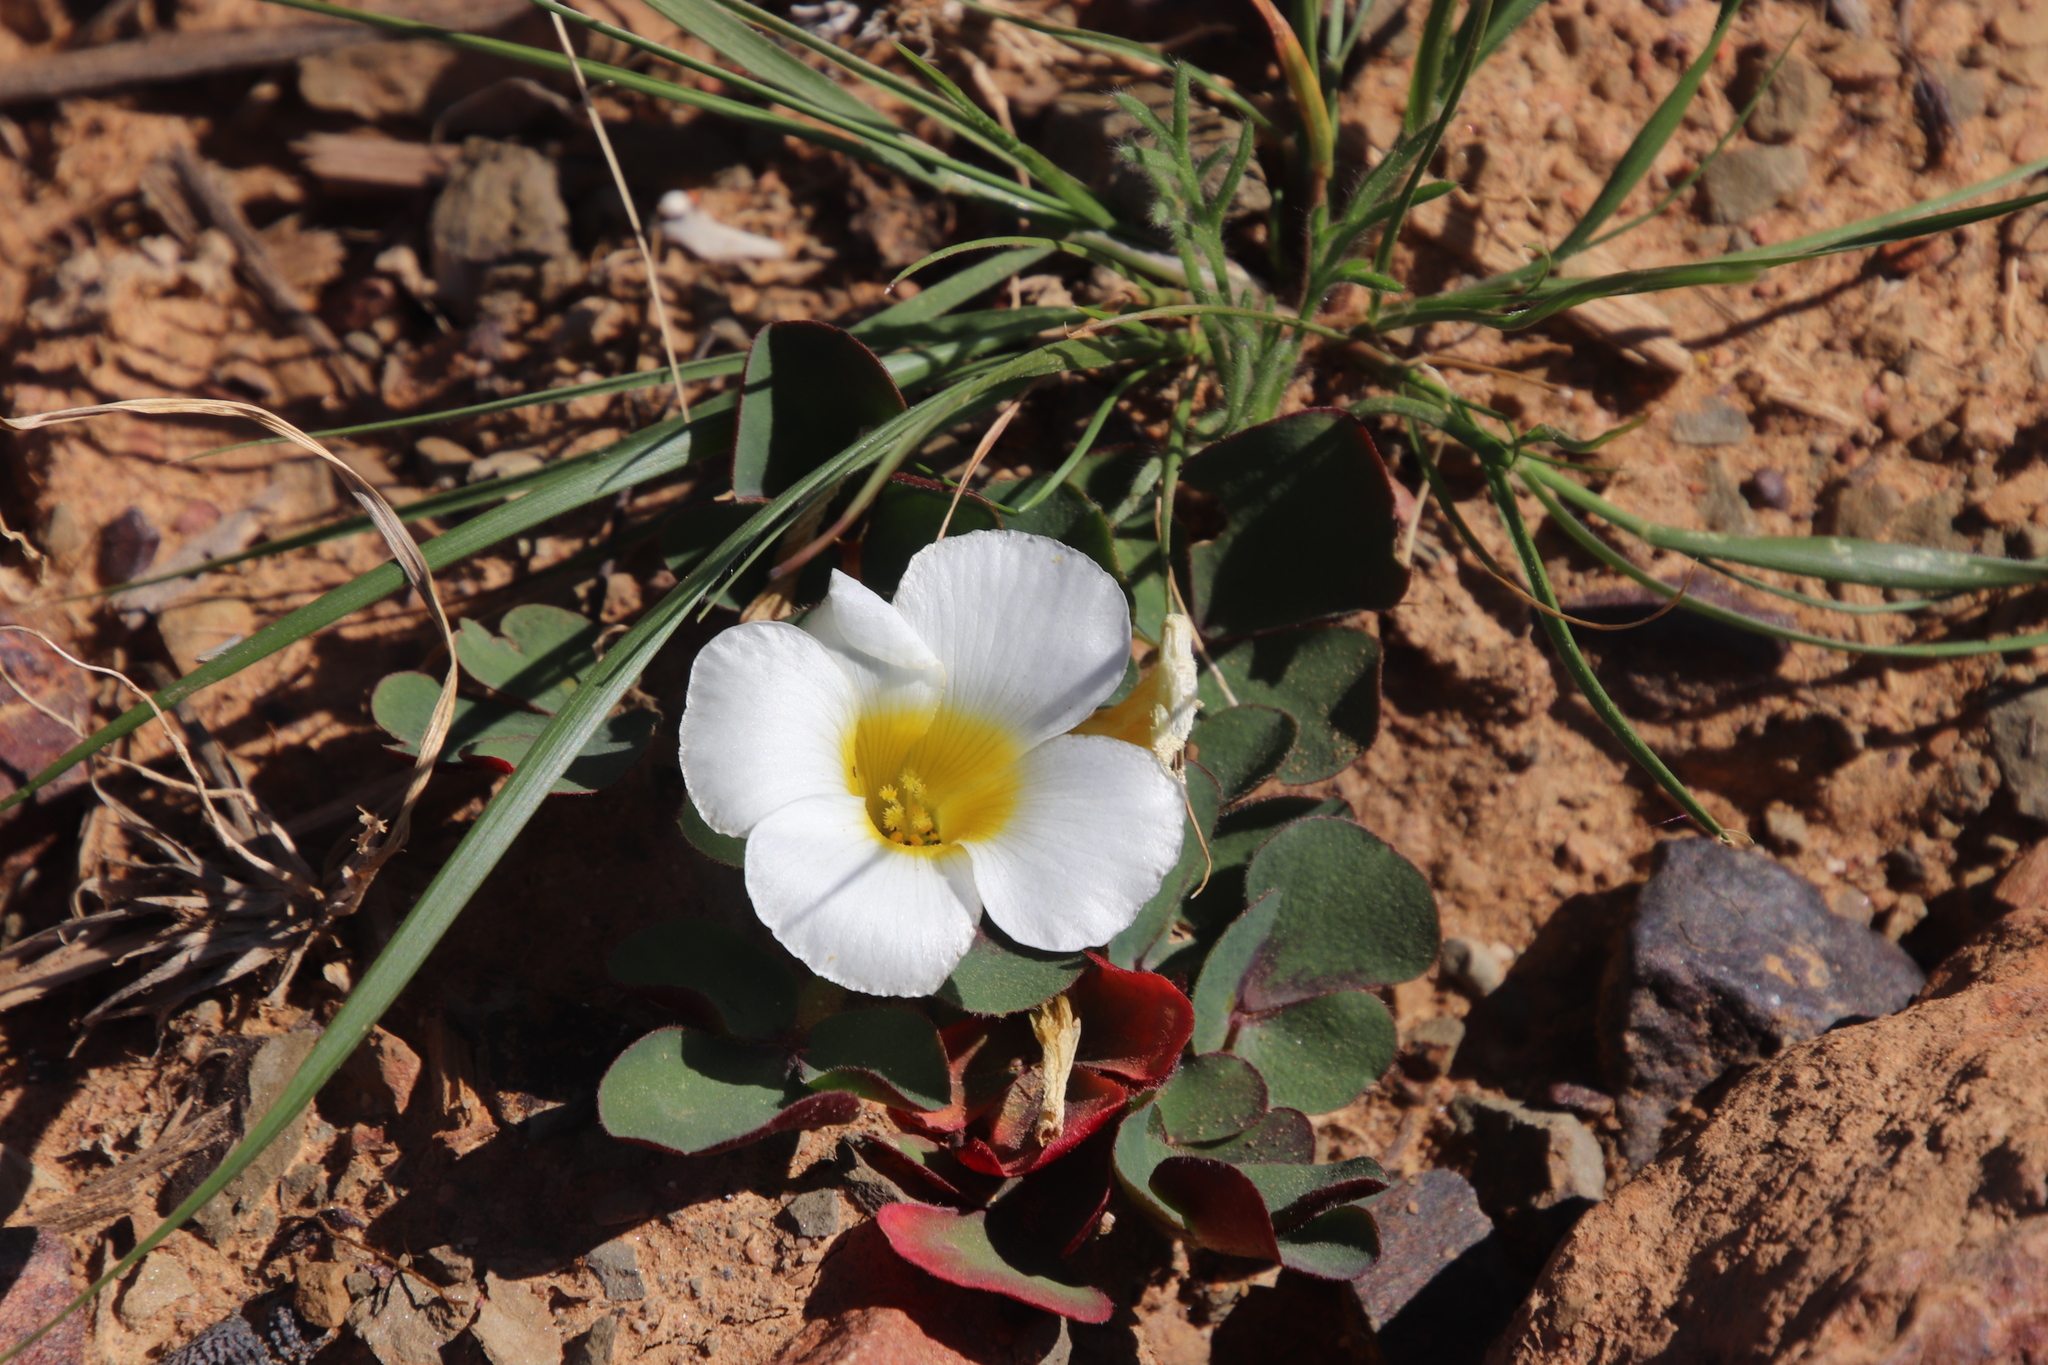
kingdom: Plantae
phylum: Tracheophyta
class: Magnoliopsida
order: Oxalidales
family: Oxalidaceae
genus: Oxalis
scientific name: Oxalis purpurea
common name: Purple woodsorrel
